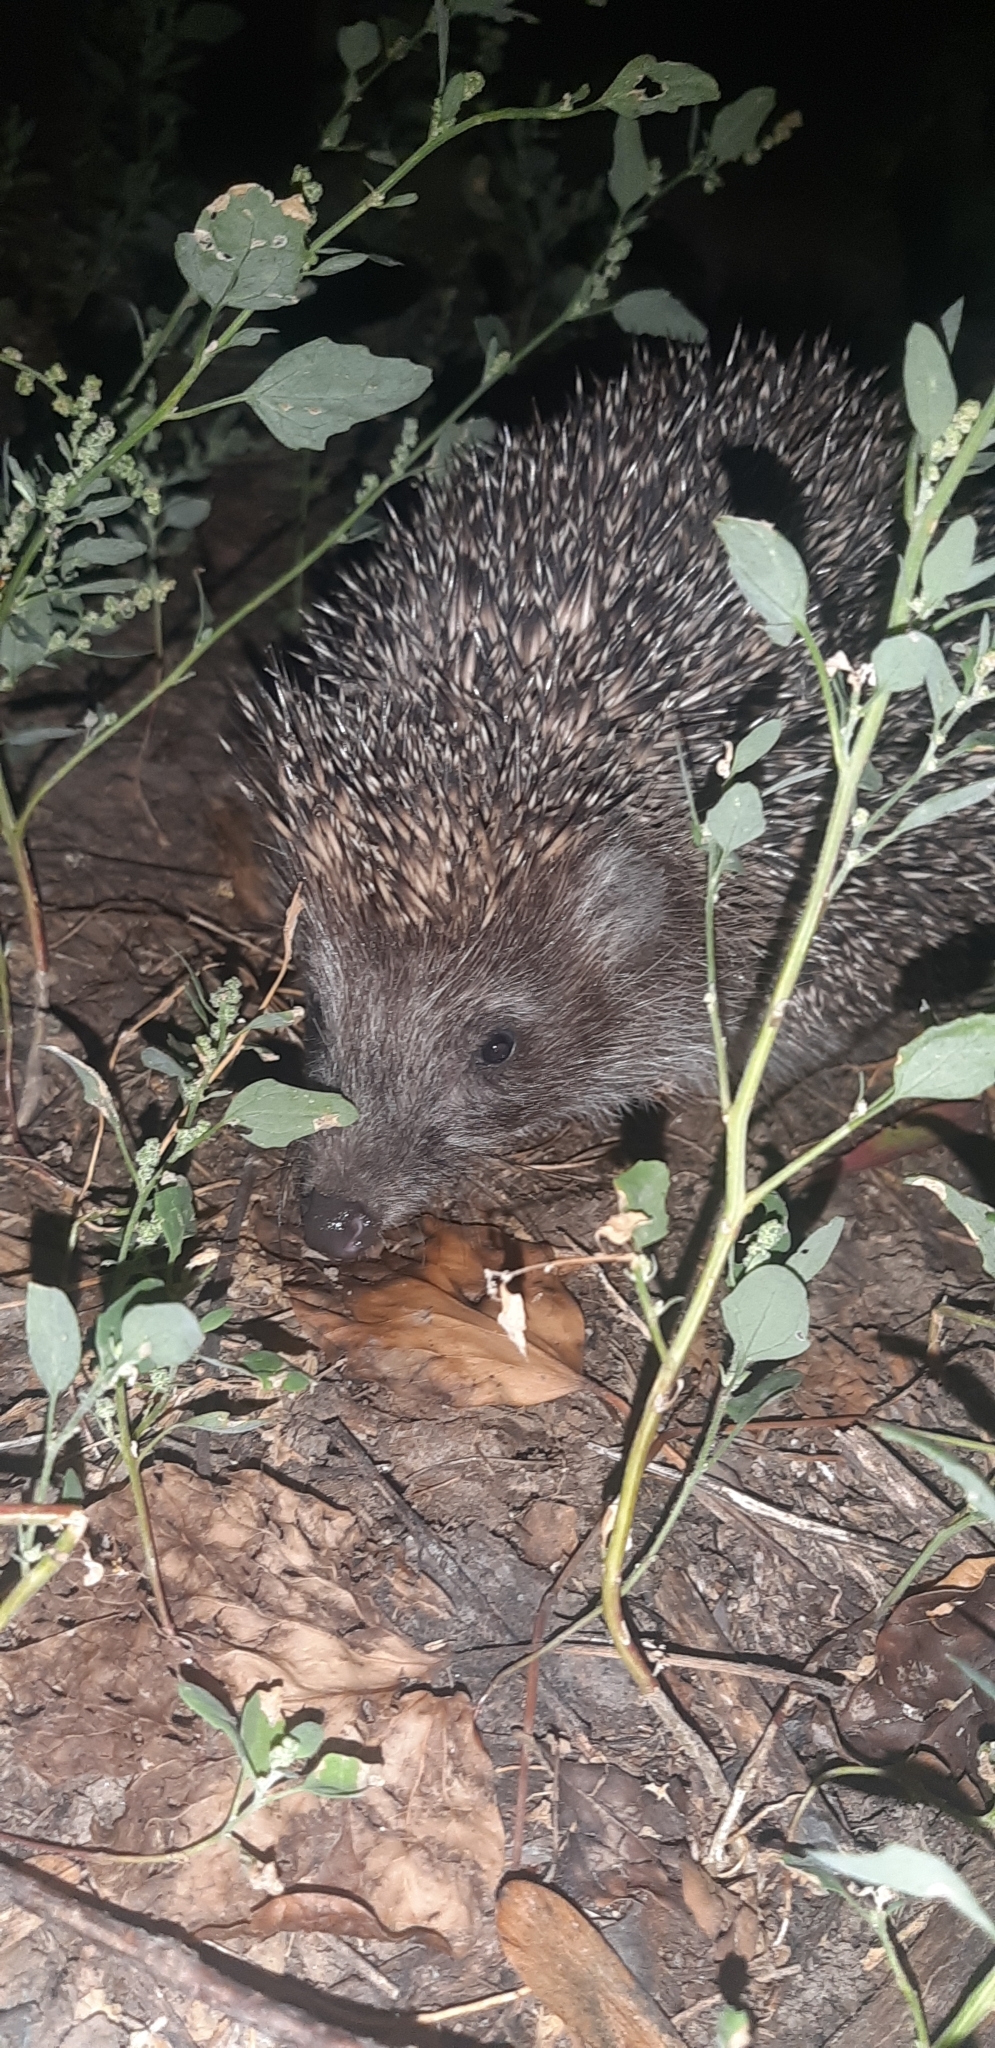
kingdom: Animalia
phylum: Chordata
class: Mammalia
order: Erinaceomorpha
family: Erinaceidae
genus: Erinaceus
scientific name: Erinaceus roumanicus
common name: Northern white-breasted hedgehog
